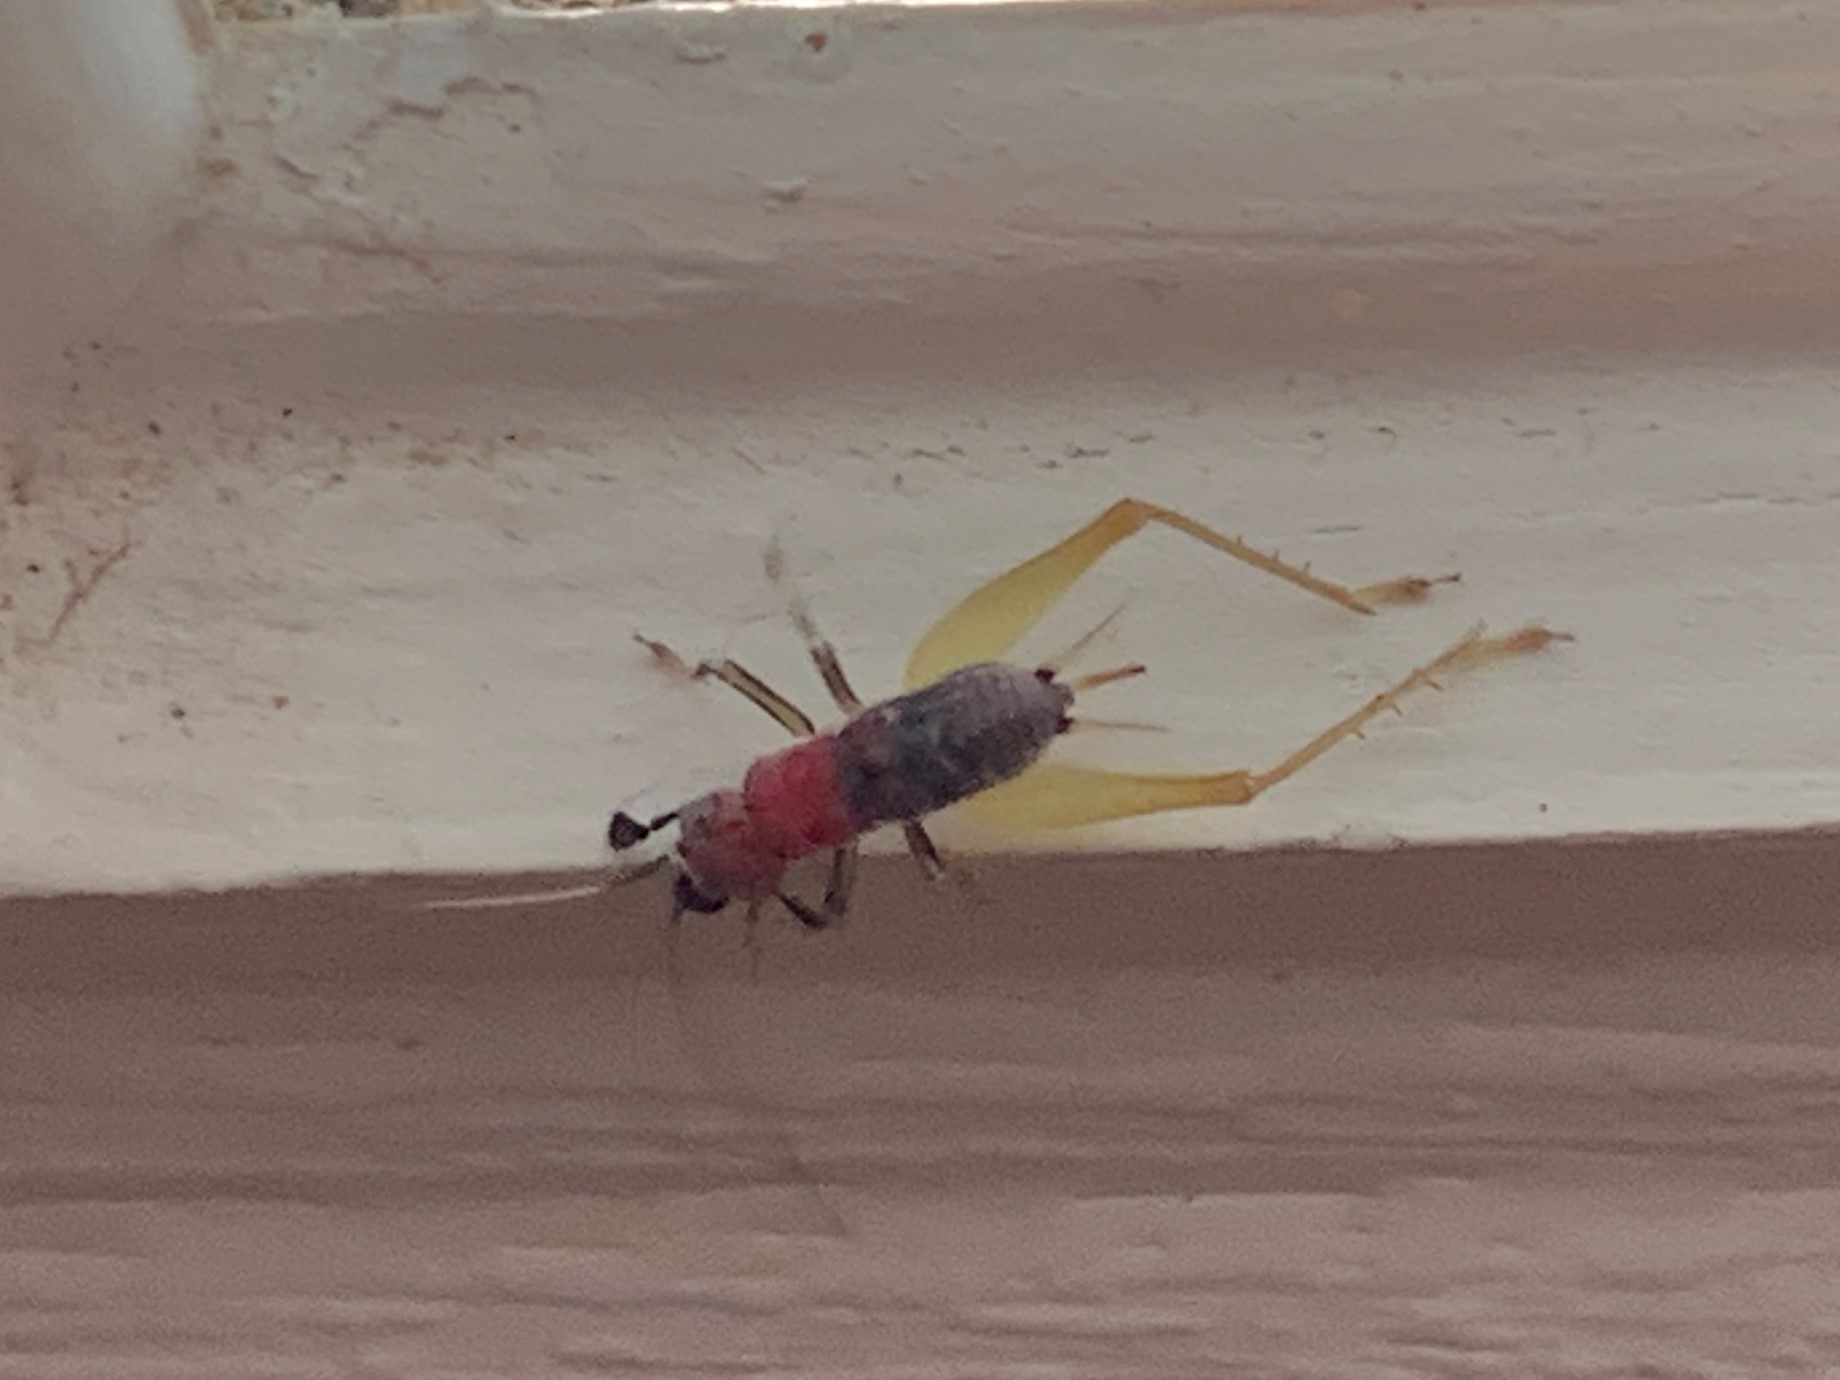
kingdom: Animalia
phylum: Arthropoda
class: Insecta
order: Orthoptera
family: Trigonidiidae
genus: Phyllopalpus
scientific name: Phyllopalpus pulchellus
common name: Handsome trig
